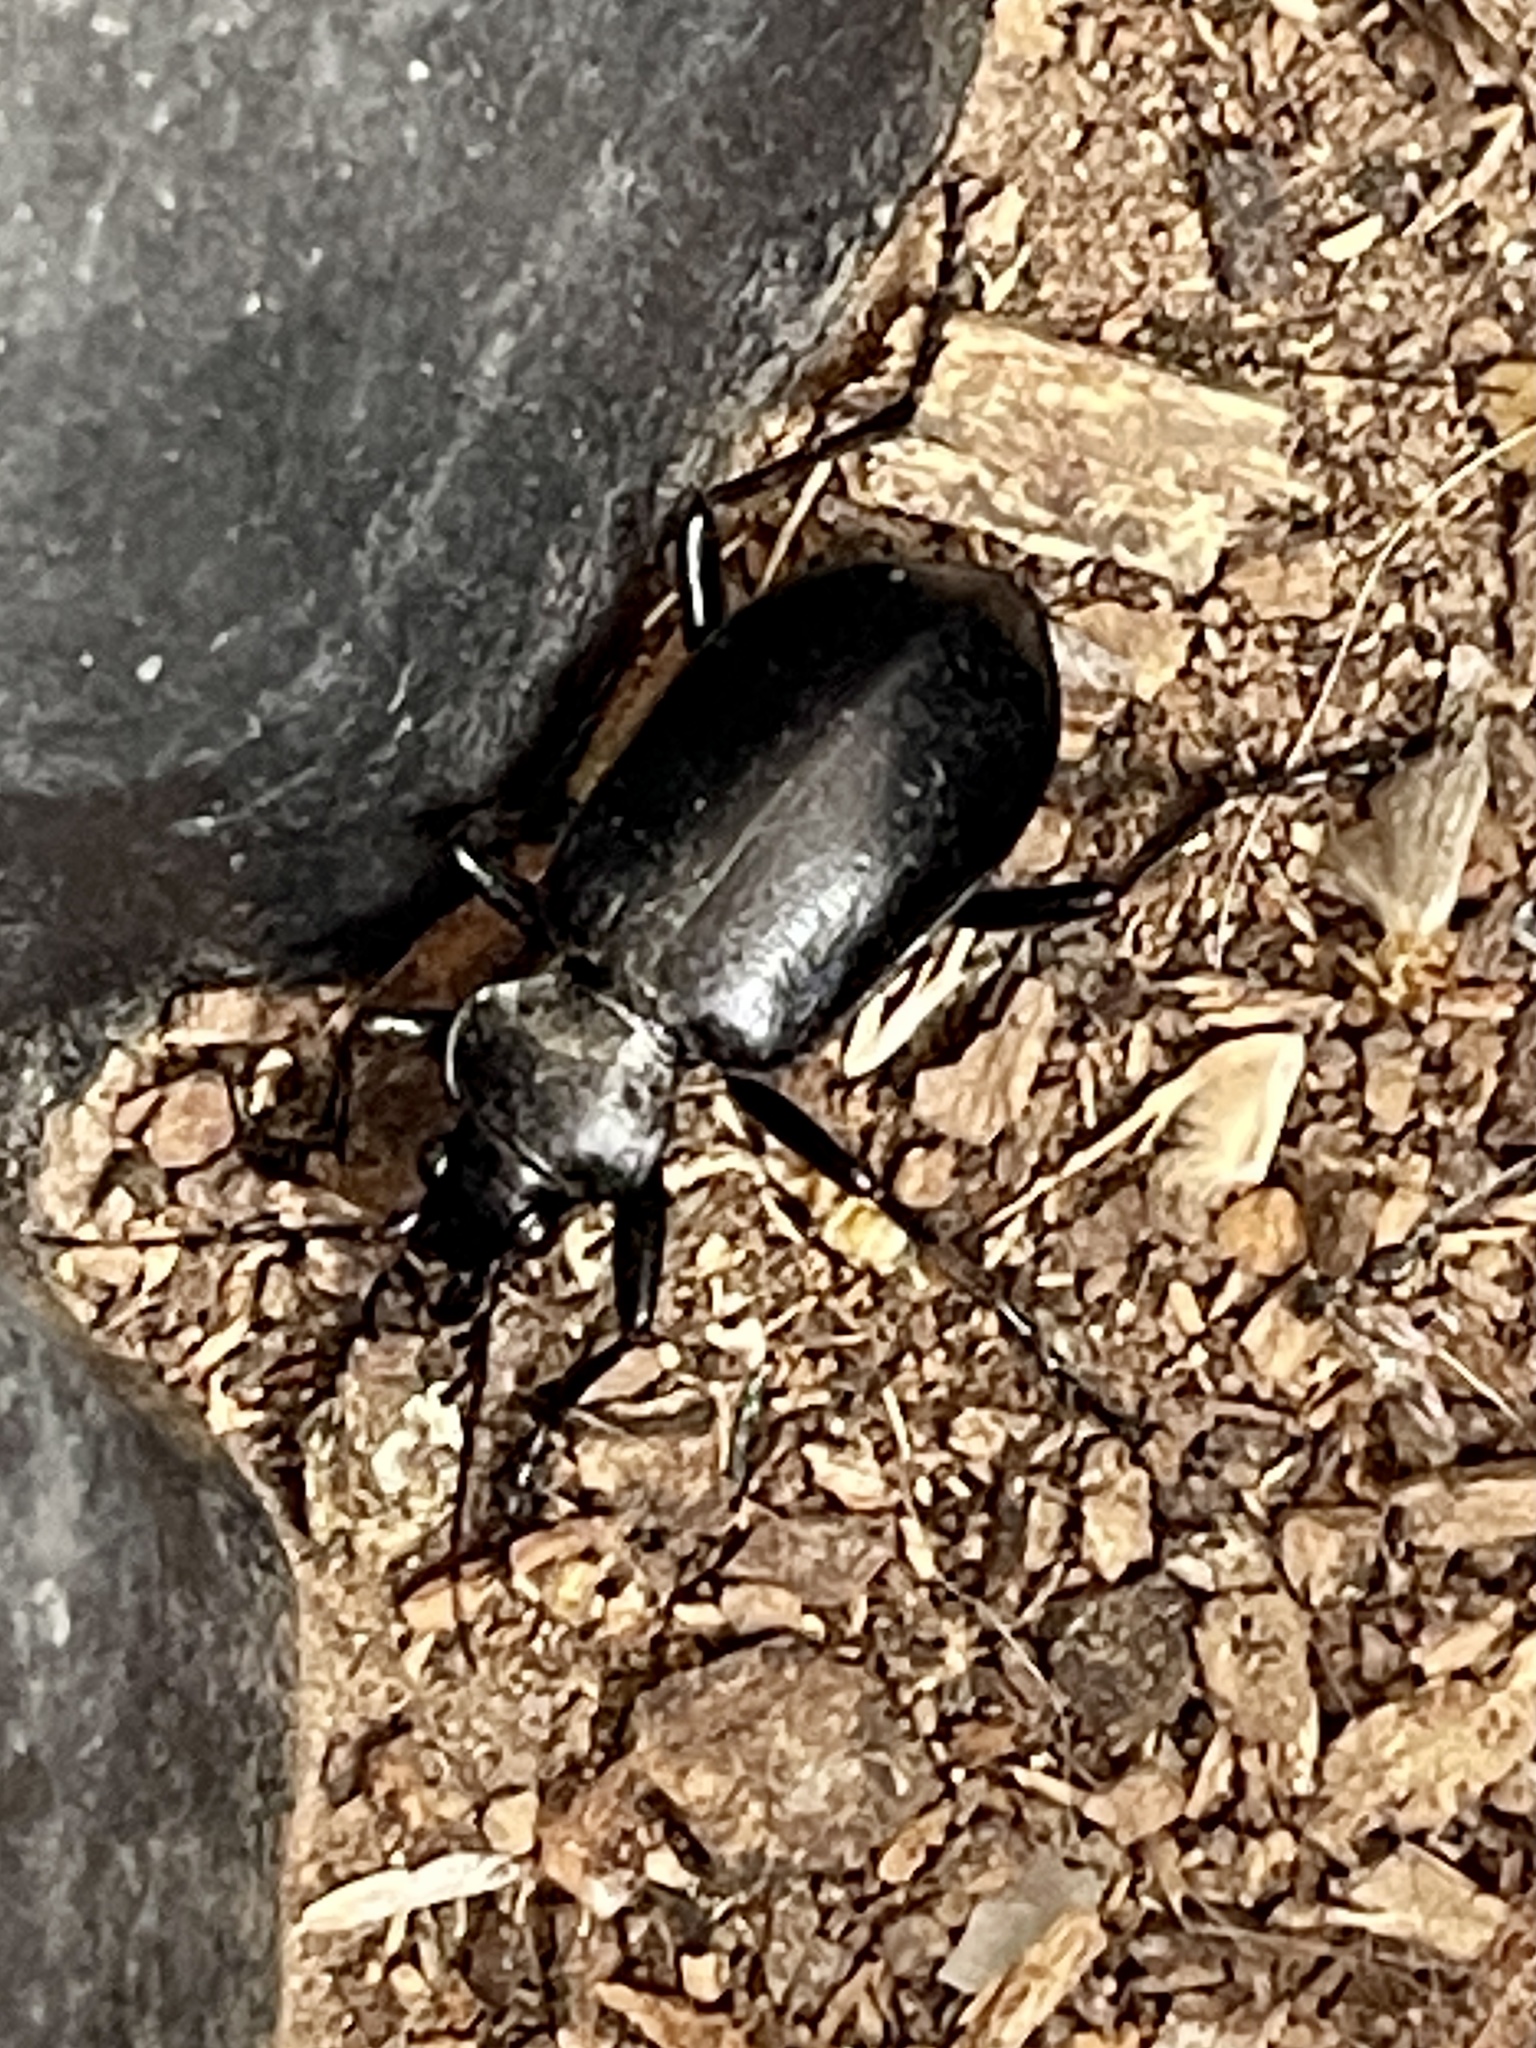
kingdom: Animalia
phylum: Arthropoda
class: Insecta
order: Coleoptera
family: Carabidae
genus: Calosoma
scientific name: Calosoma peregrinator
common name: Ground beetle
